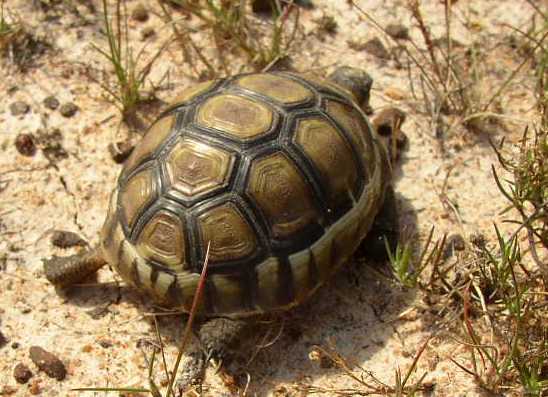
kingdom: Animalia
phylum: Chordata
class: Testudines
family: Testudinidae
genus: Chersina
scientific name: Chersina angulata
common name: South african bowsprit tortoise
